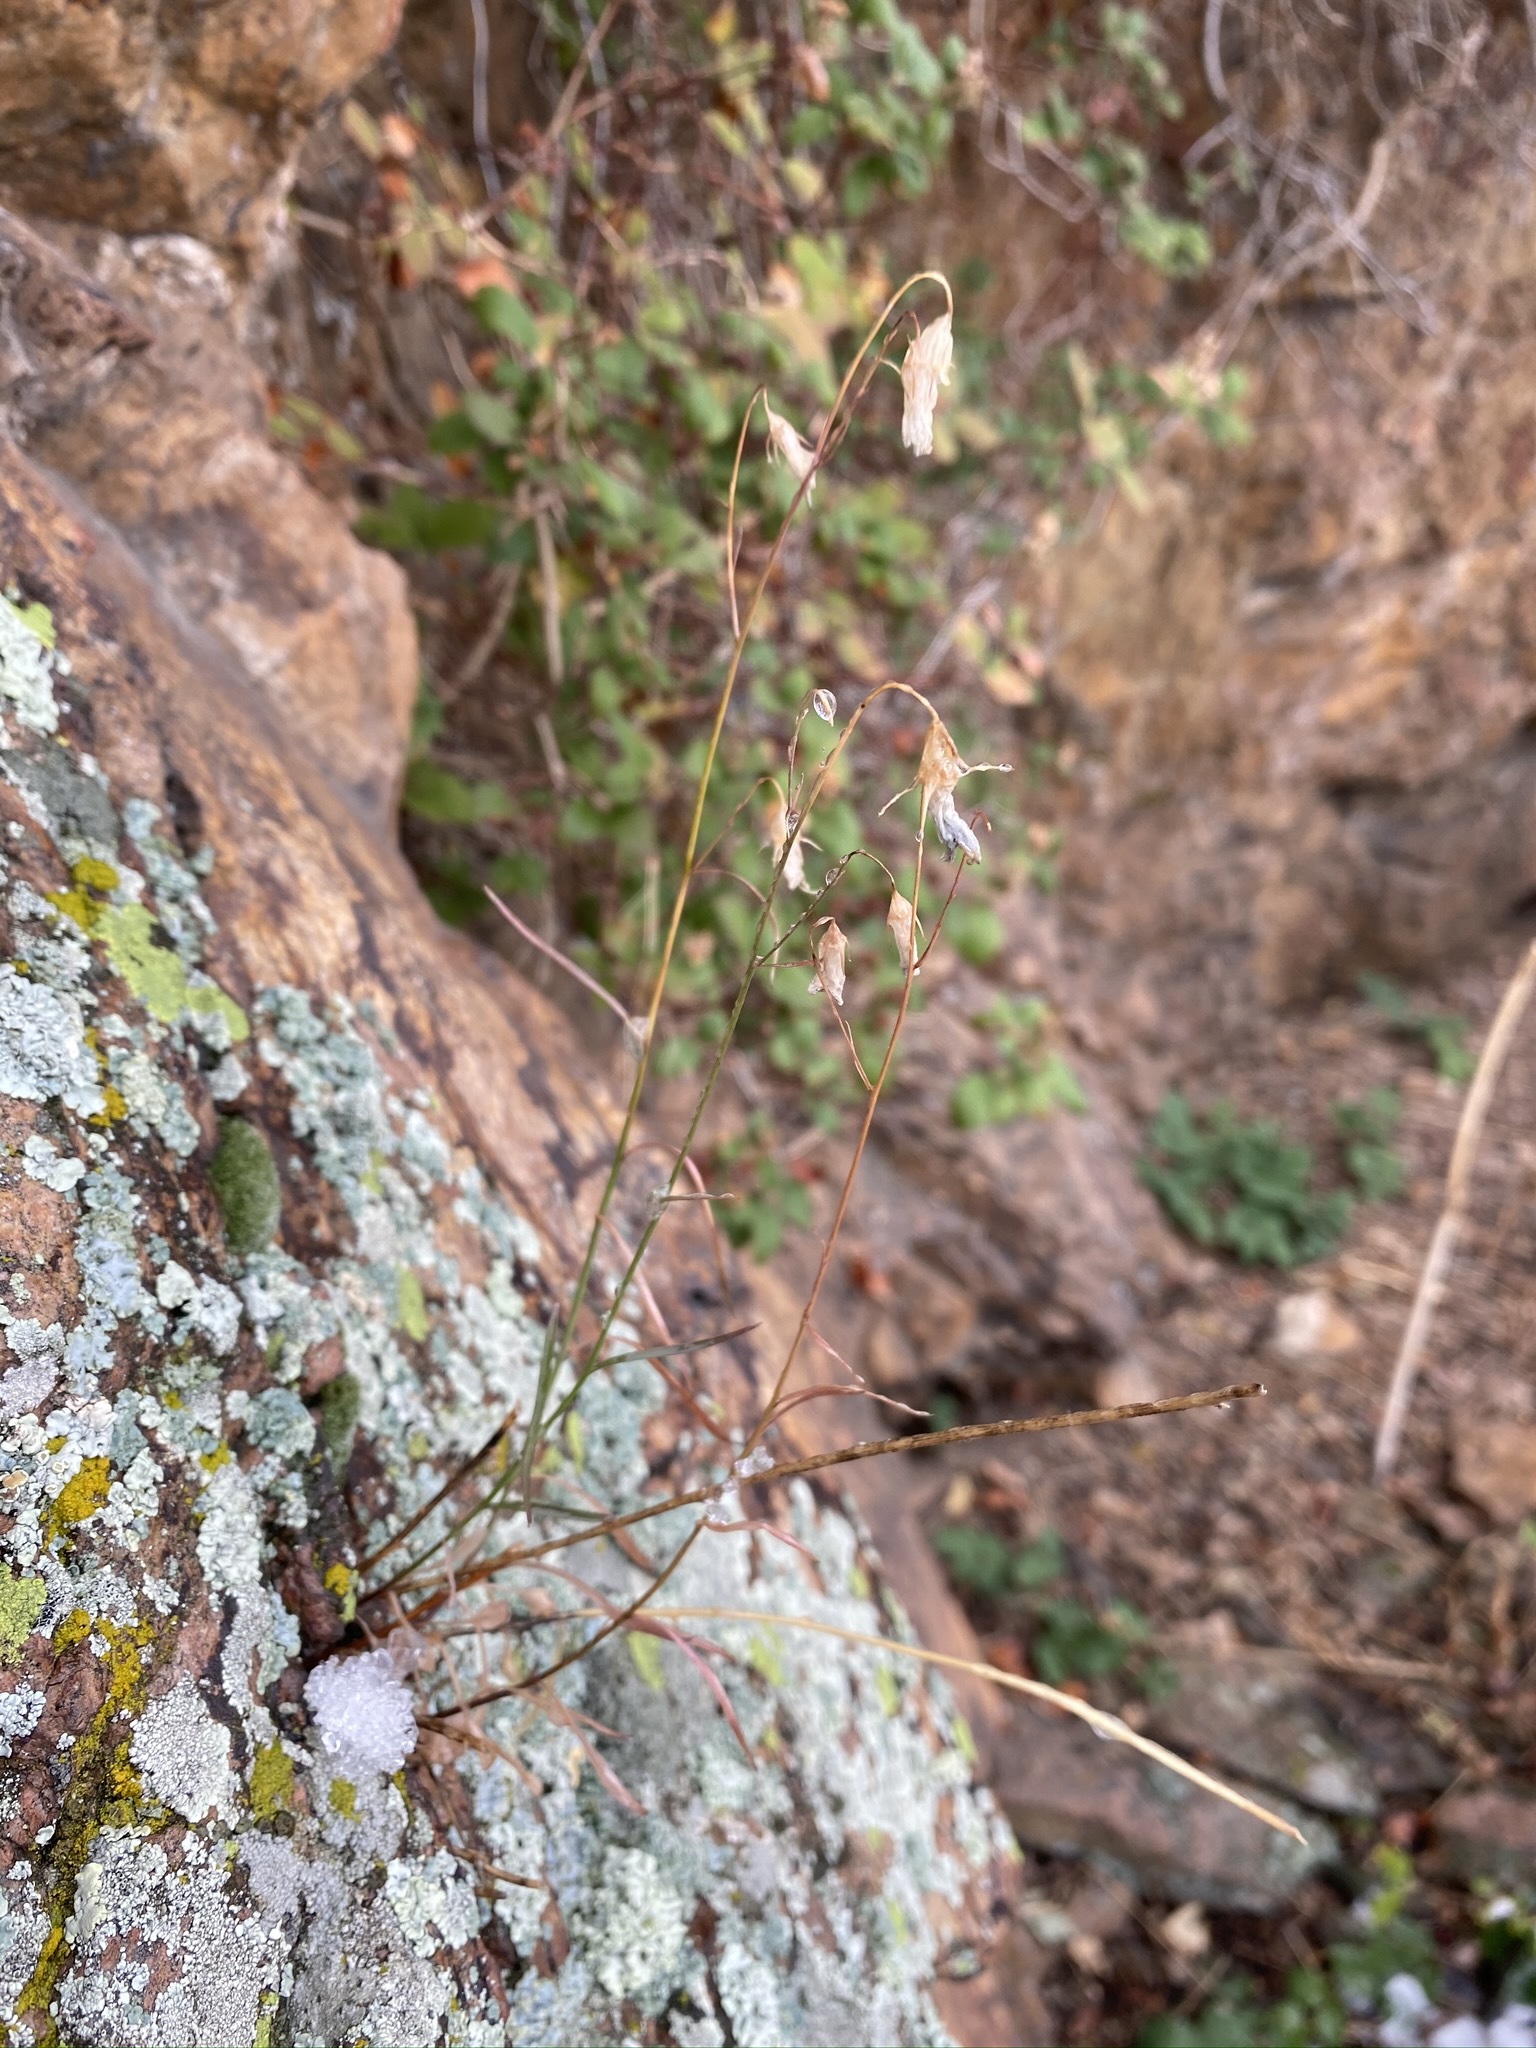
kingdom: Plantae
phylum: Tracheophyta
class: Magnoliopsida
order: Asterales
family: Campanulaceae
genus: Campanula
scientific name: Campanula petiolata
